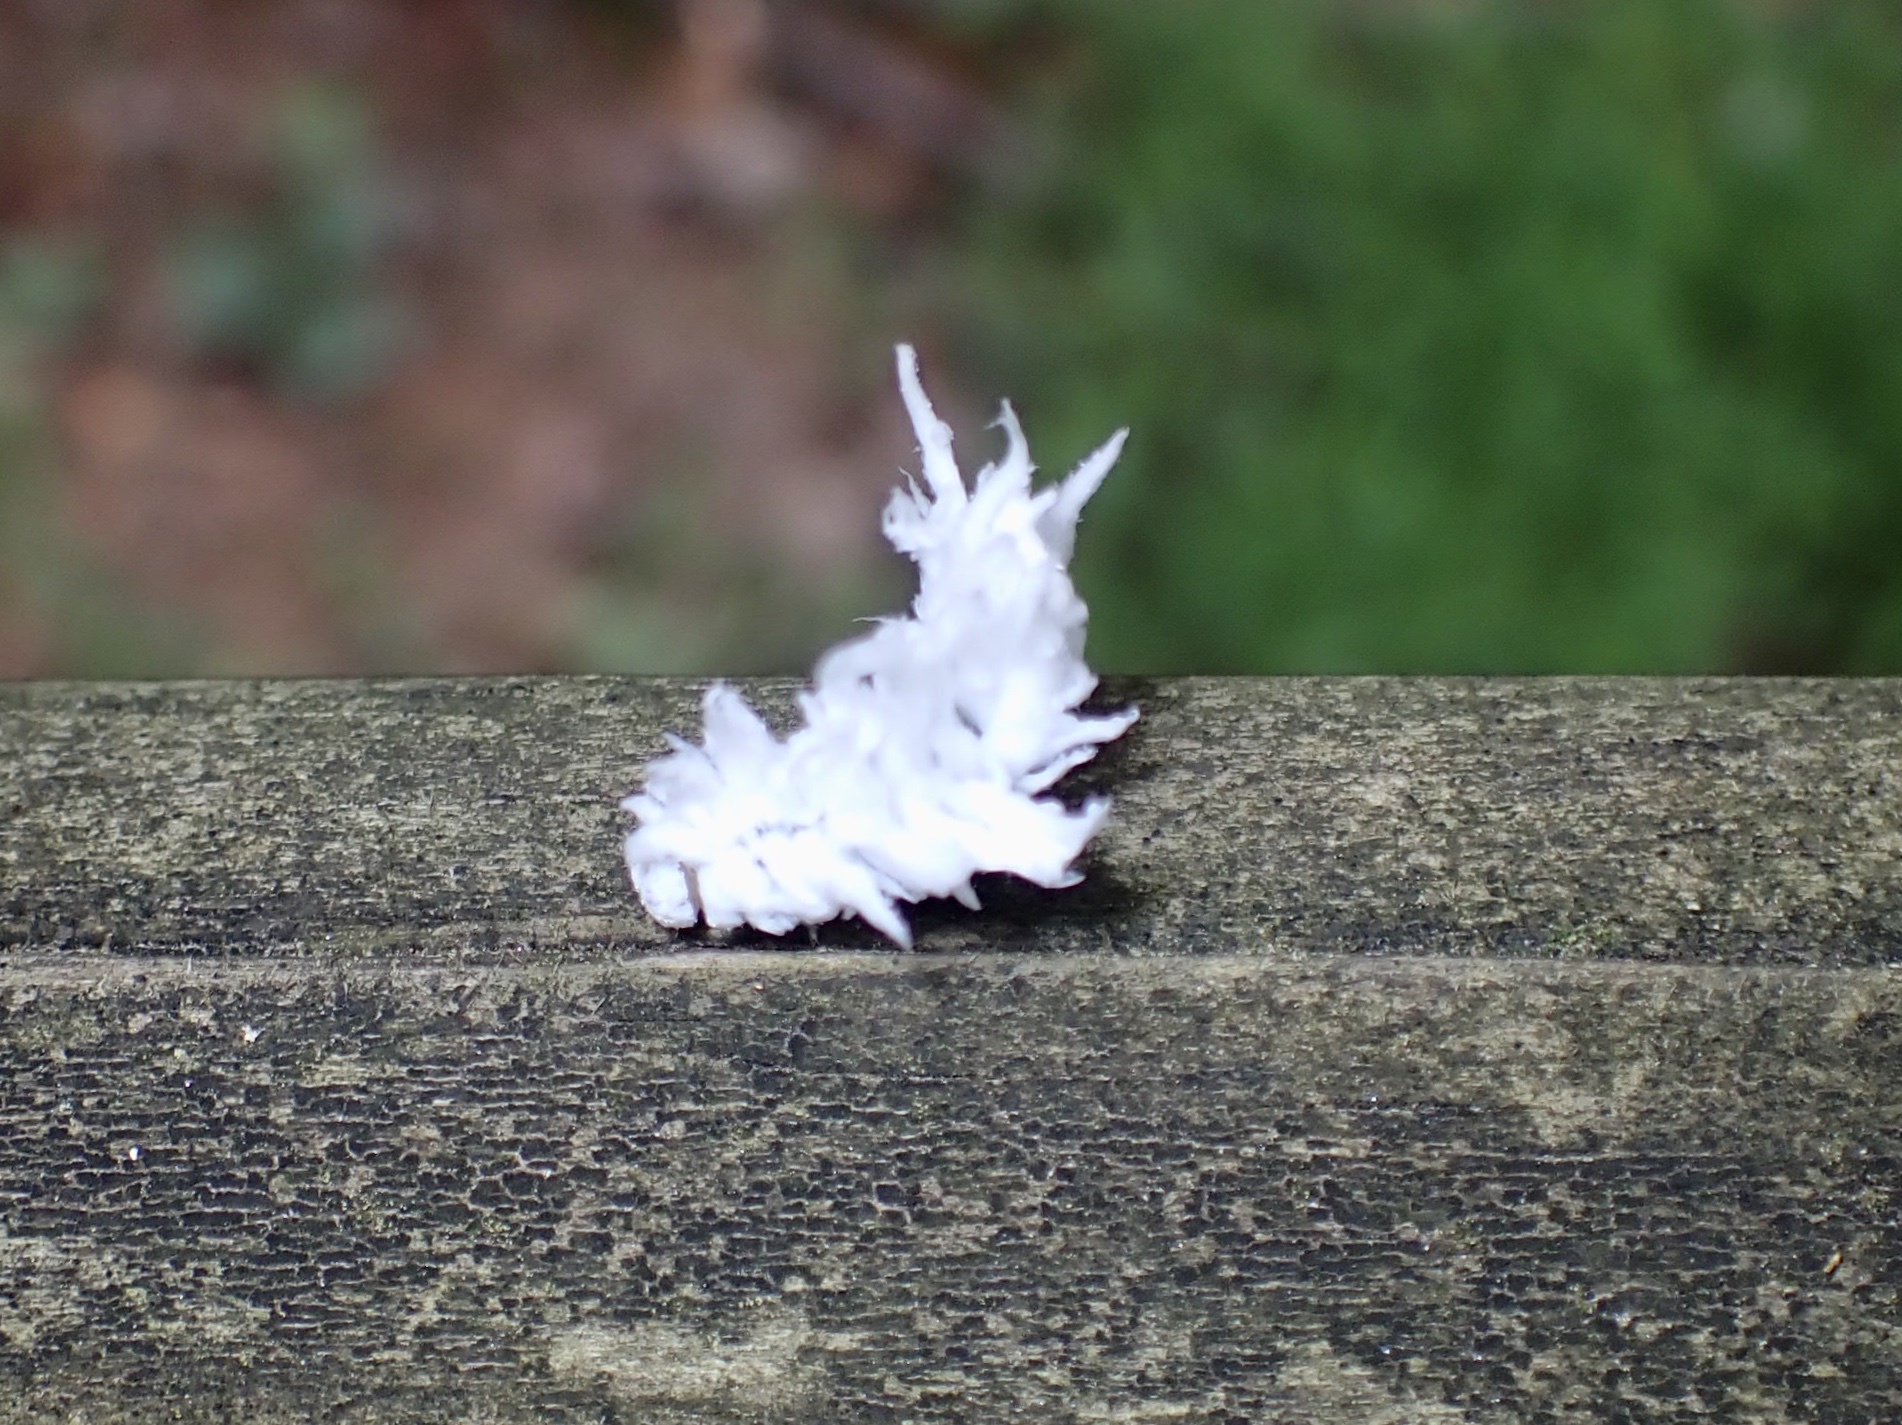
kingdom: Animalia
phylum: Arthropoda
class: Insecta
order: Hymenoptera
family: Tenthredinidae
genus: Eriocampa
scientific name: Eriocampa juglandis
